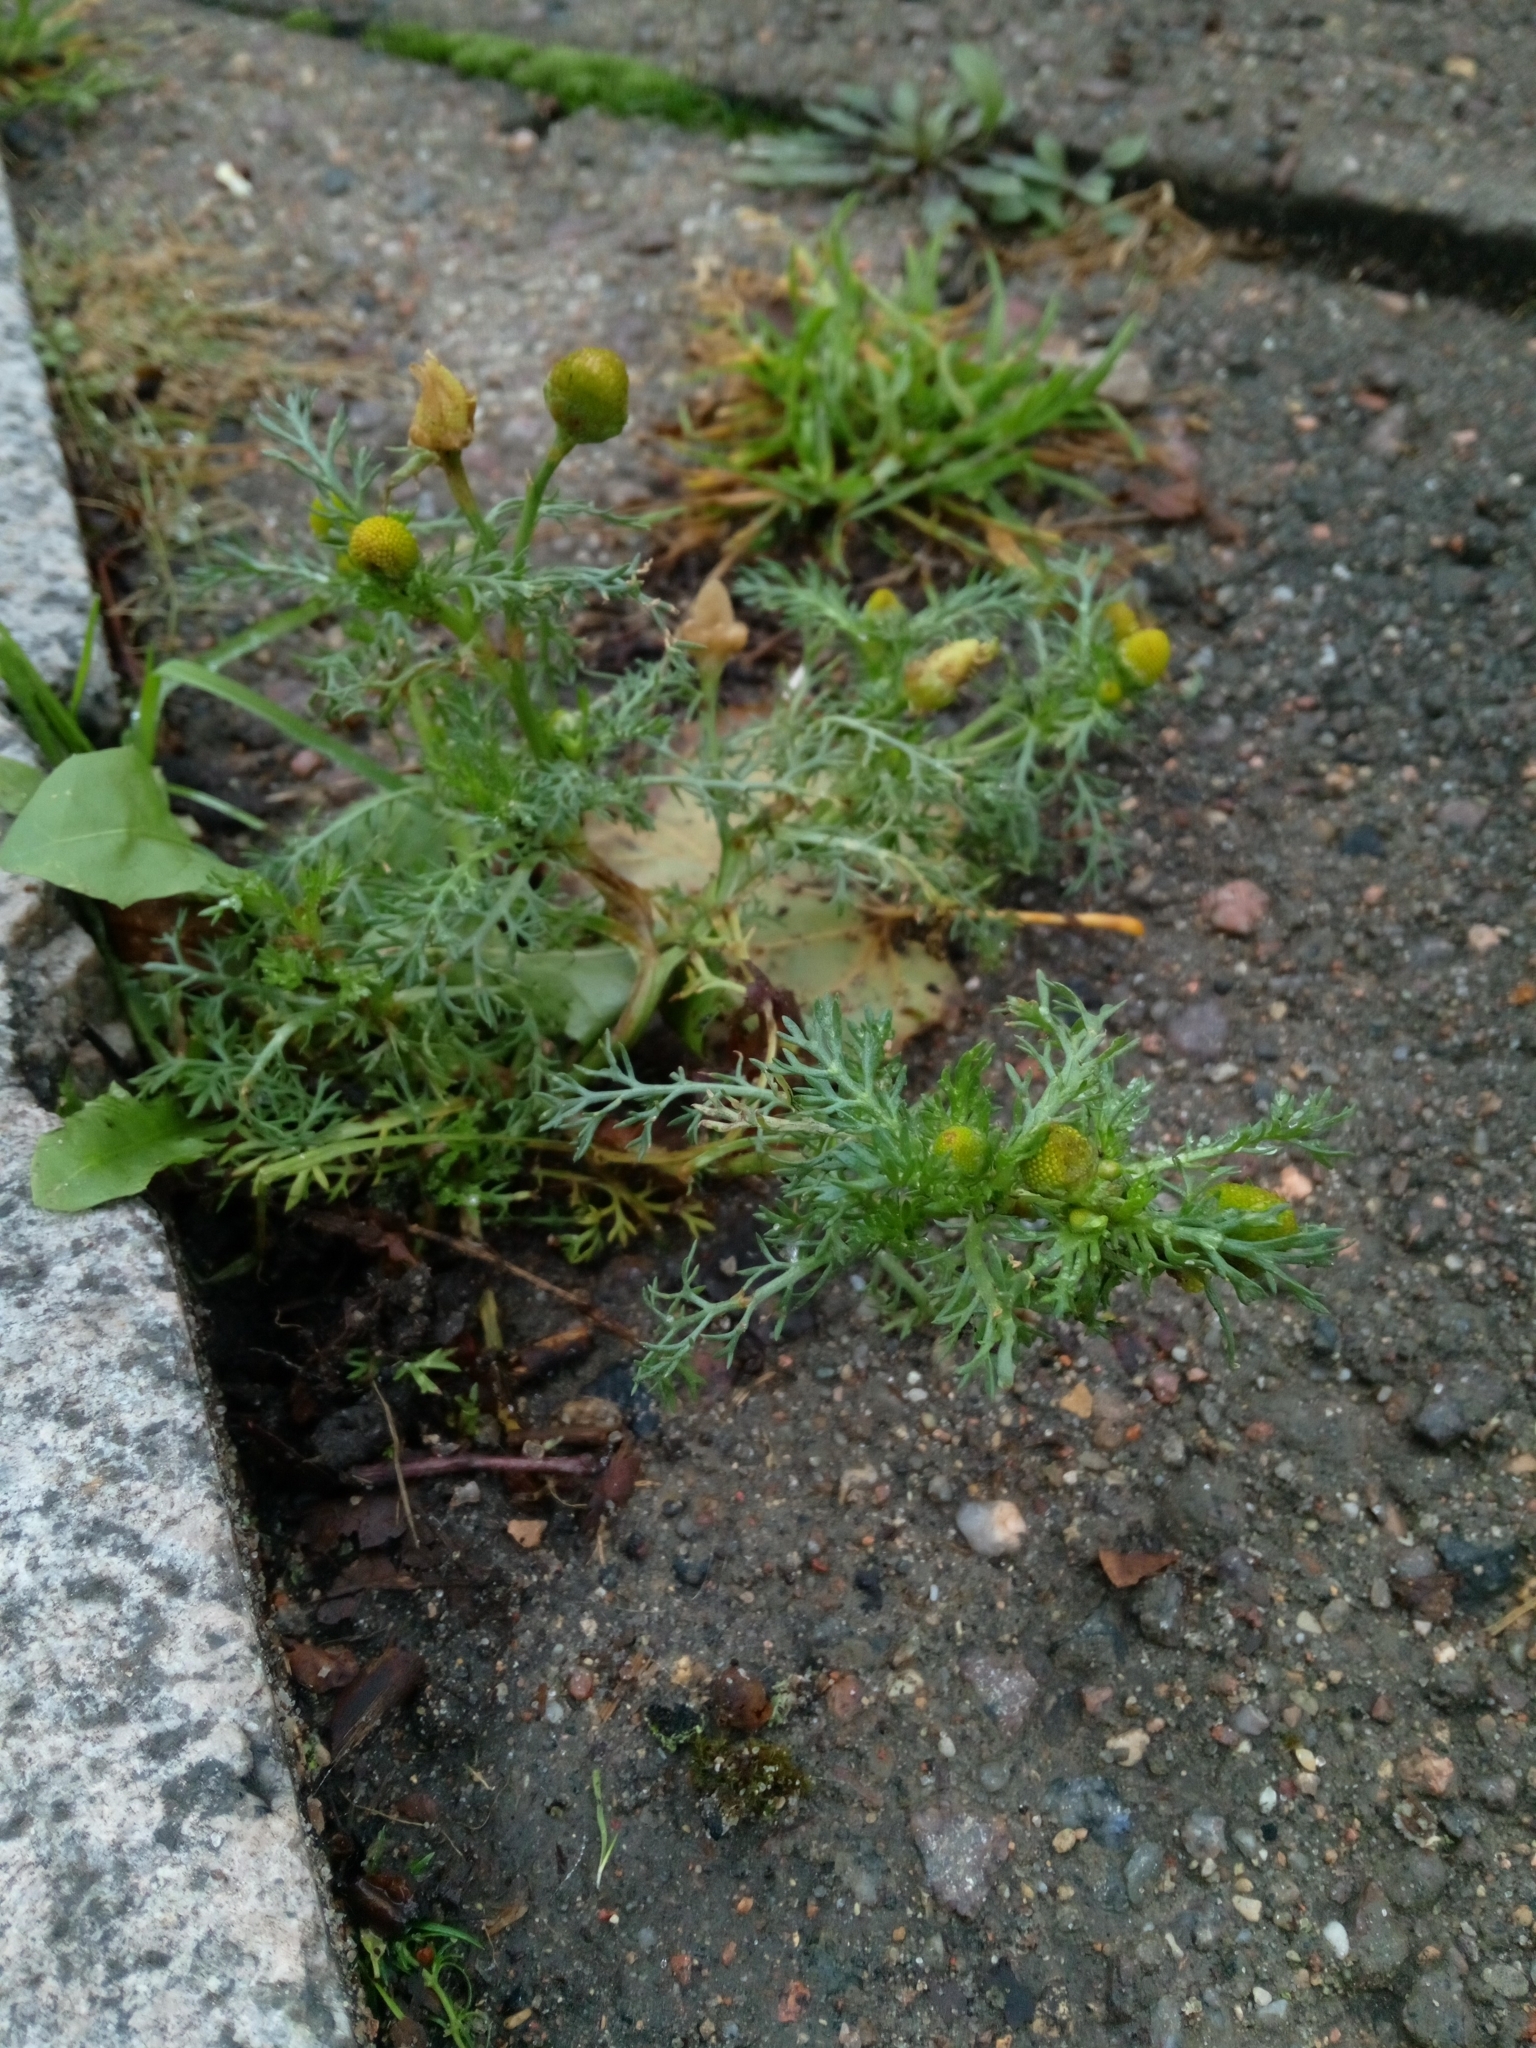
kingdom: Plantae
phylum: Tracheophyta
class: Magnoliopsida
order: Asterales
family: Asteraceae
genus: Matricaria
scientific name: Matricaria discoidea
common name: Disc mayweed
